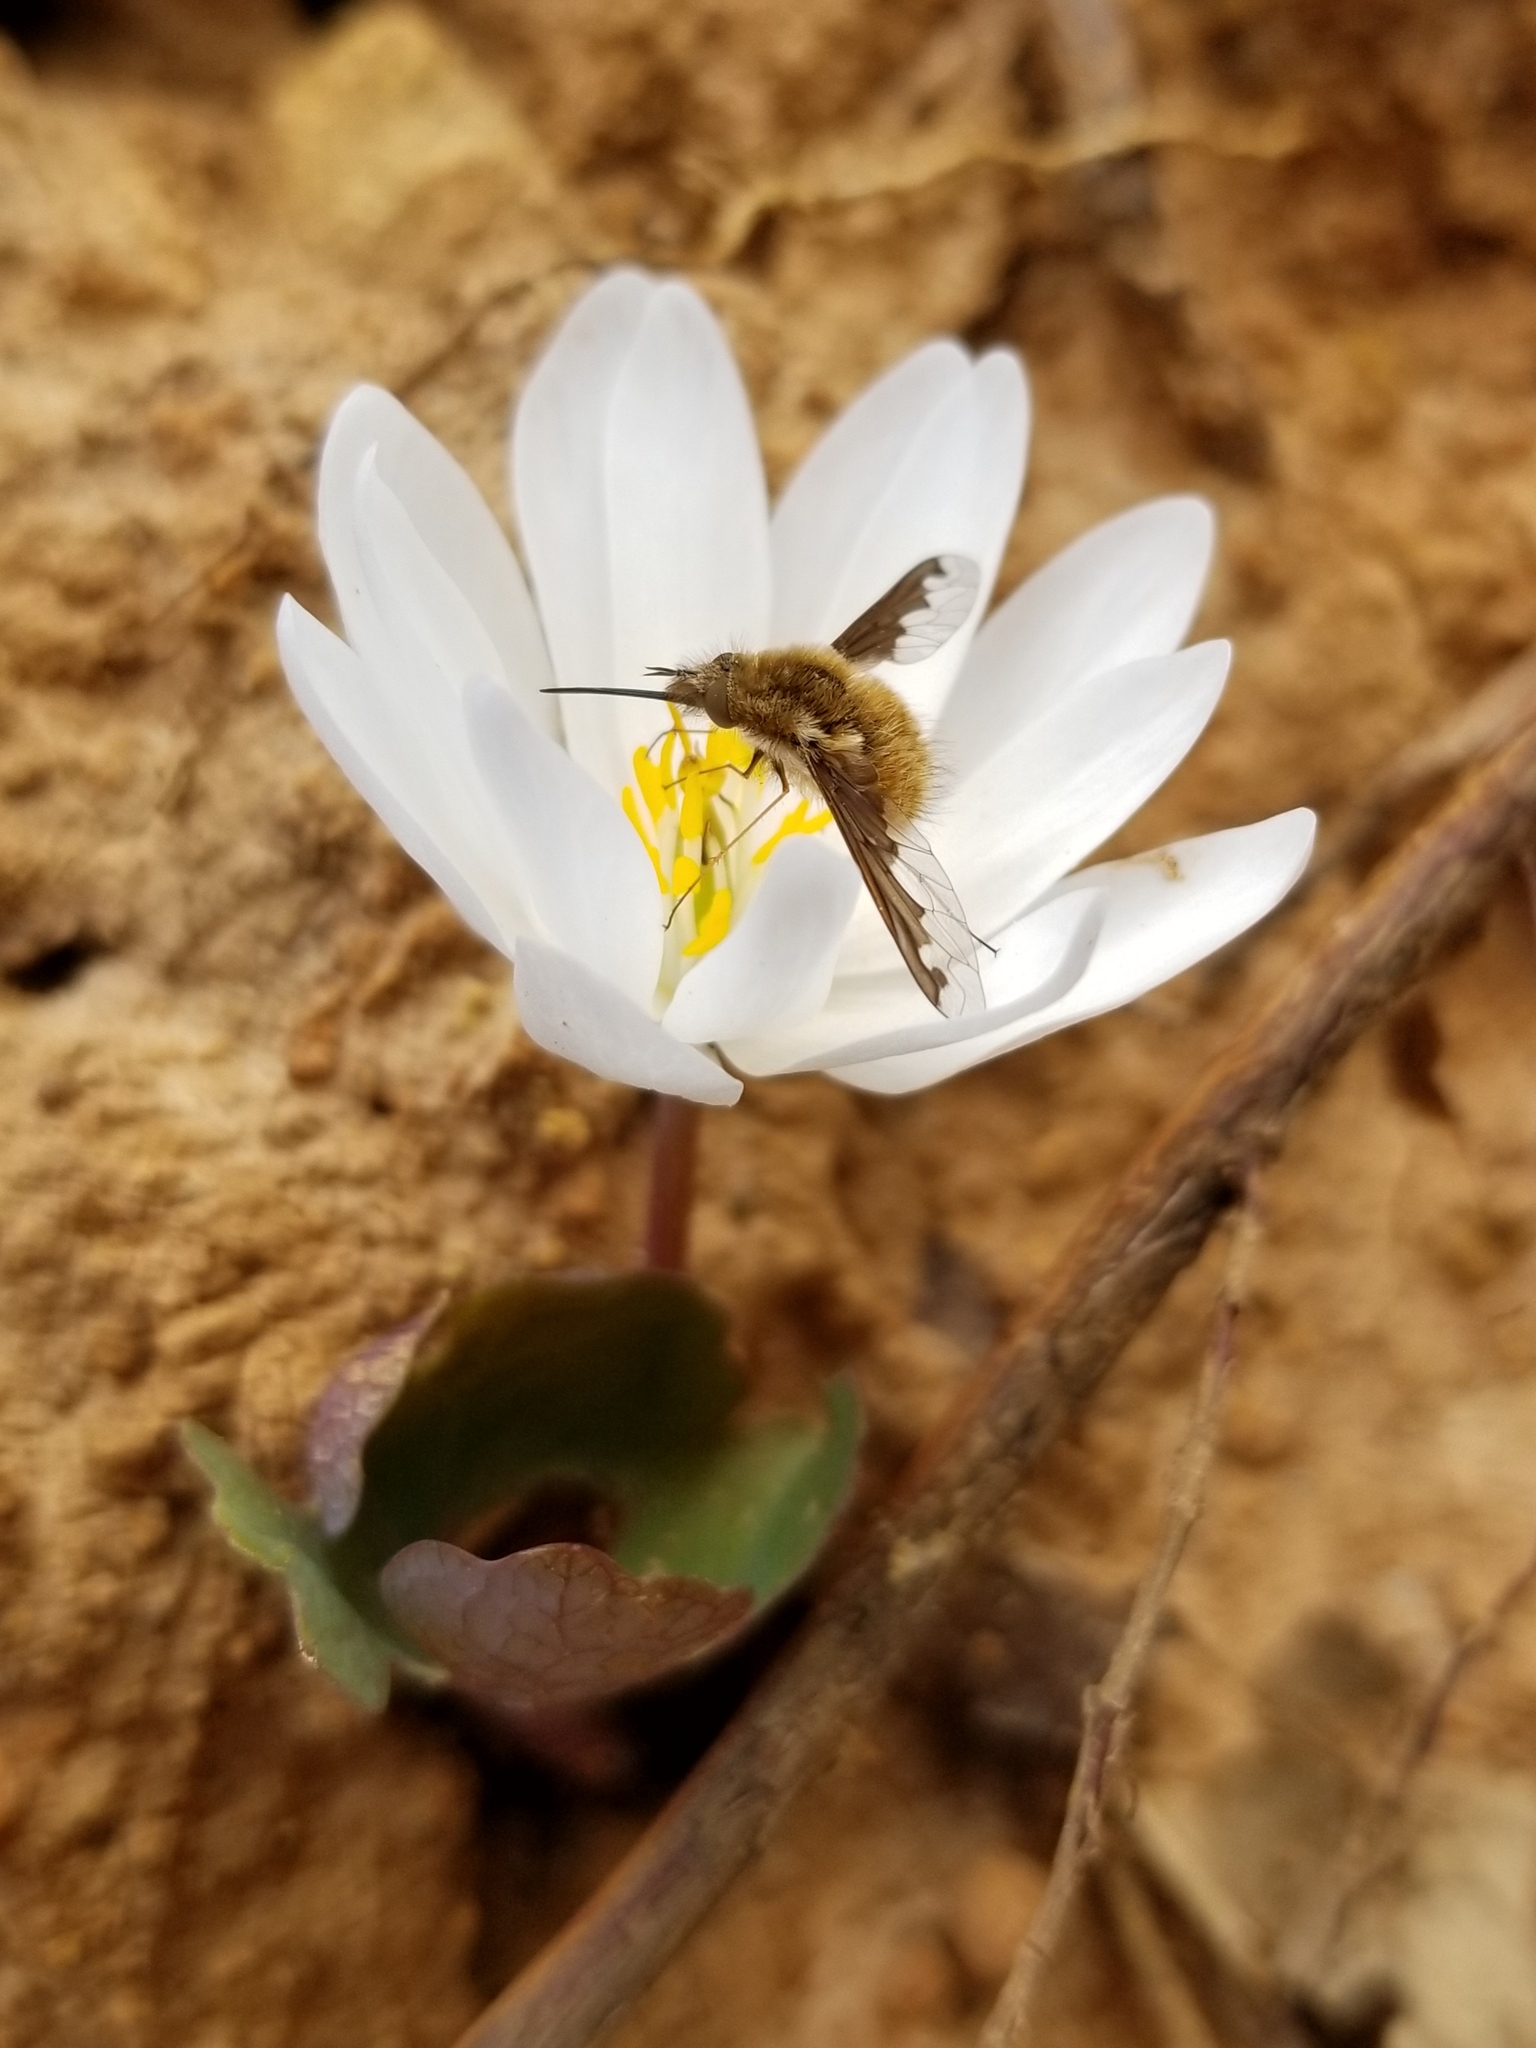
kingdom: Plantae
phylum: Tracheophyta
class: Magnoliopsida
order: Ranunculales
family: Papaveraceae
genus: Sanguinaria
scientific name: Sanguinaria canadensis
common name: Bloodroot
